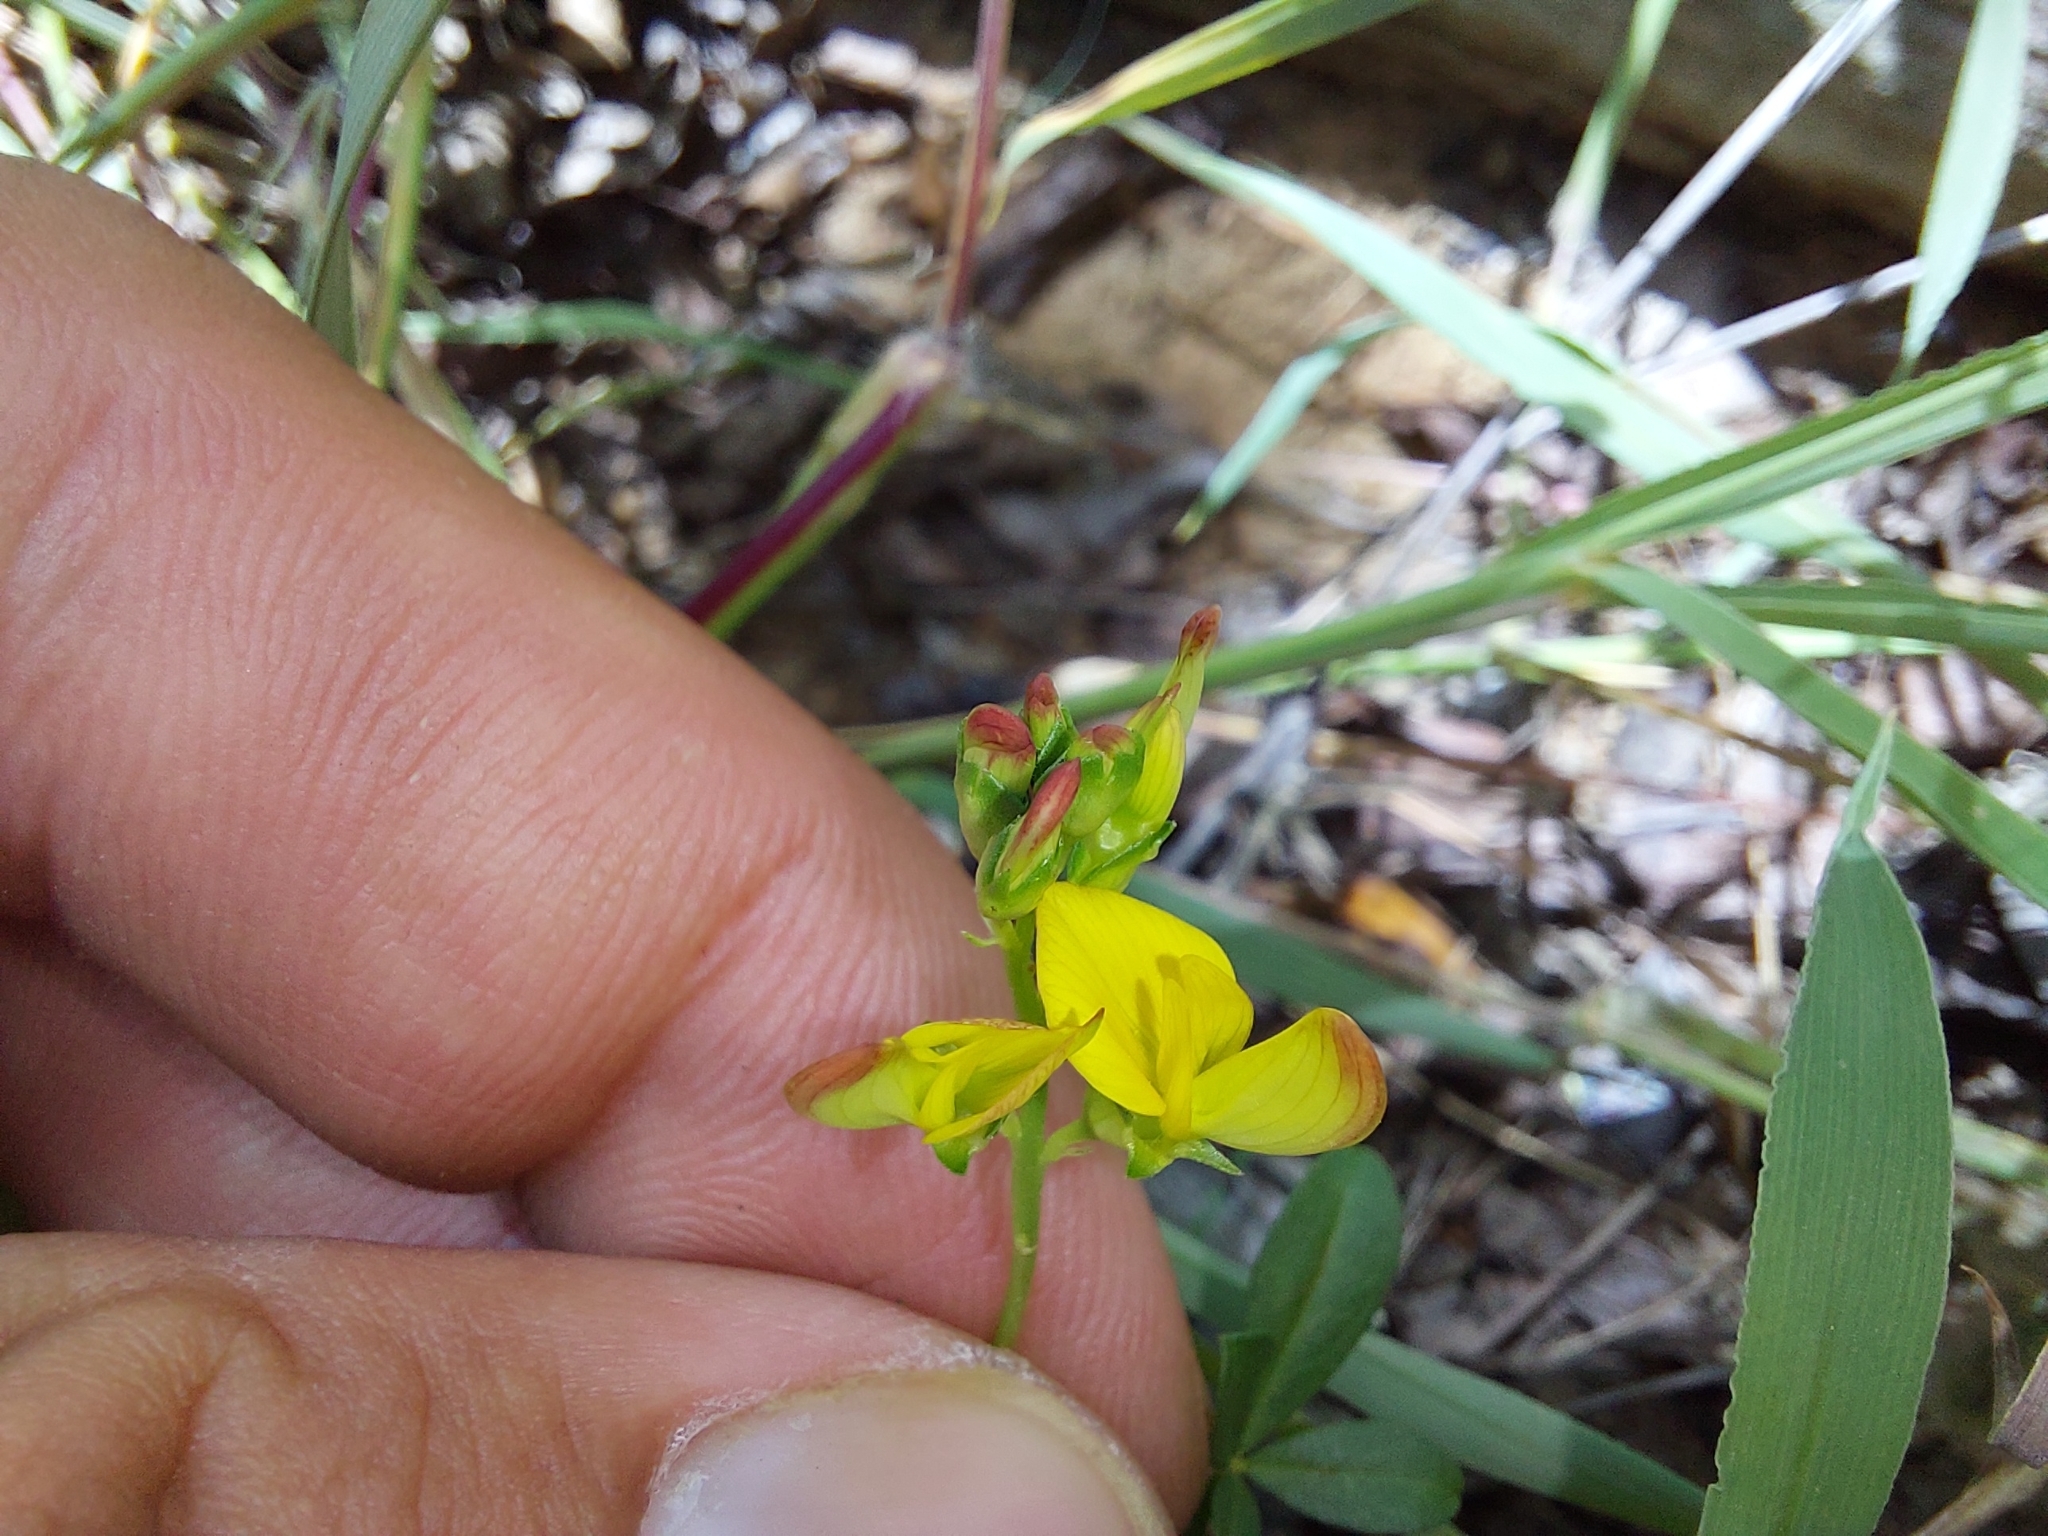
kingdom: Plantae
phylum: Tracheophyta
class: Magnoliopsida
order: Fabales
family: Fabaceae
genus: Listia
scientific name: Listia heterophylla
